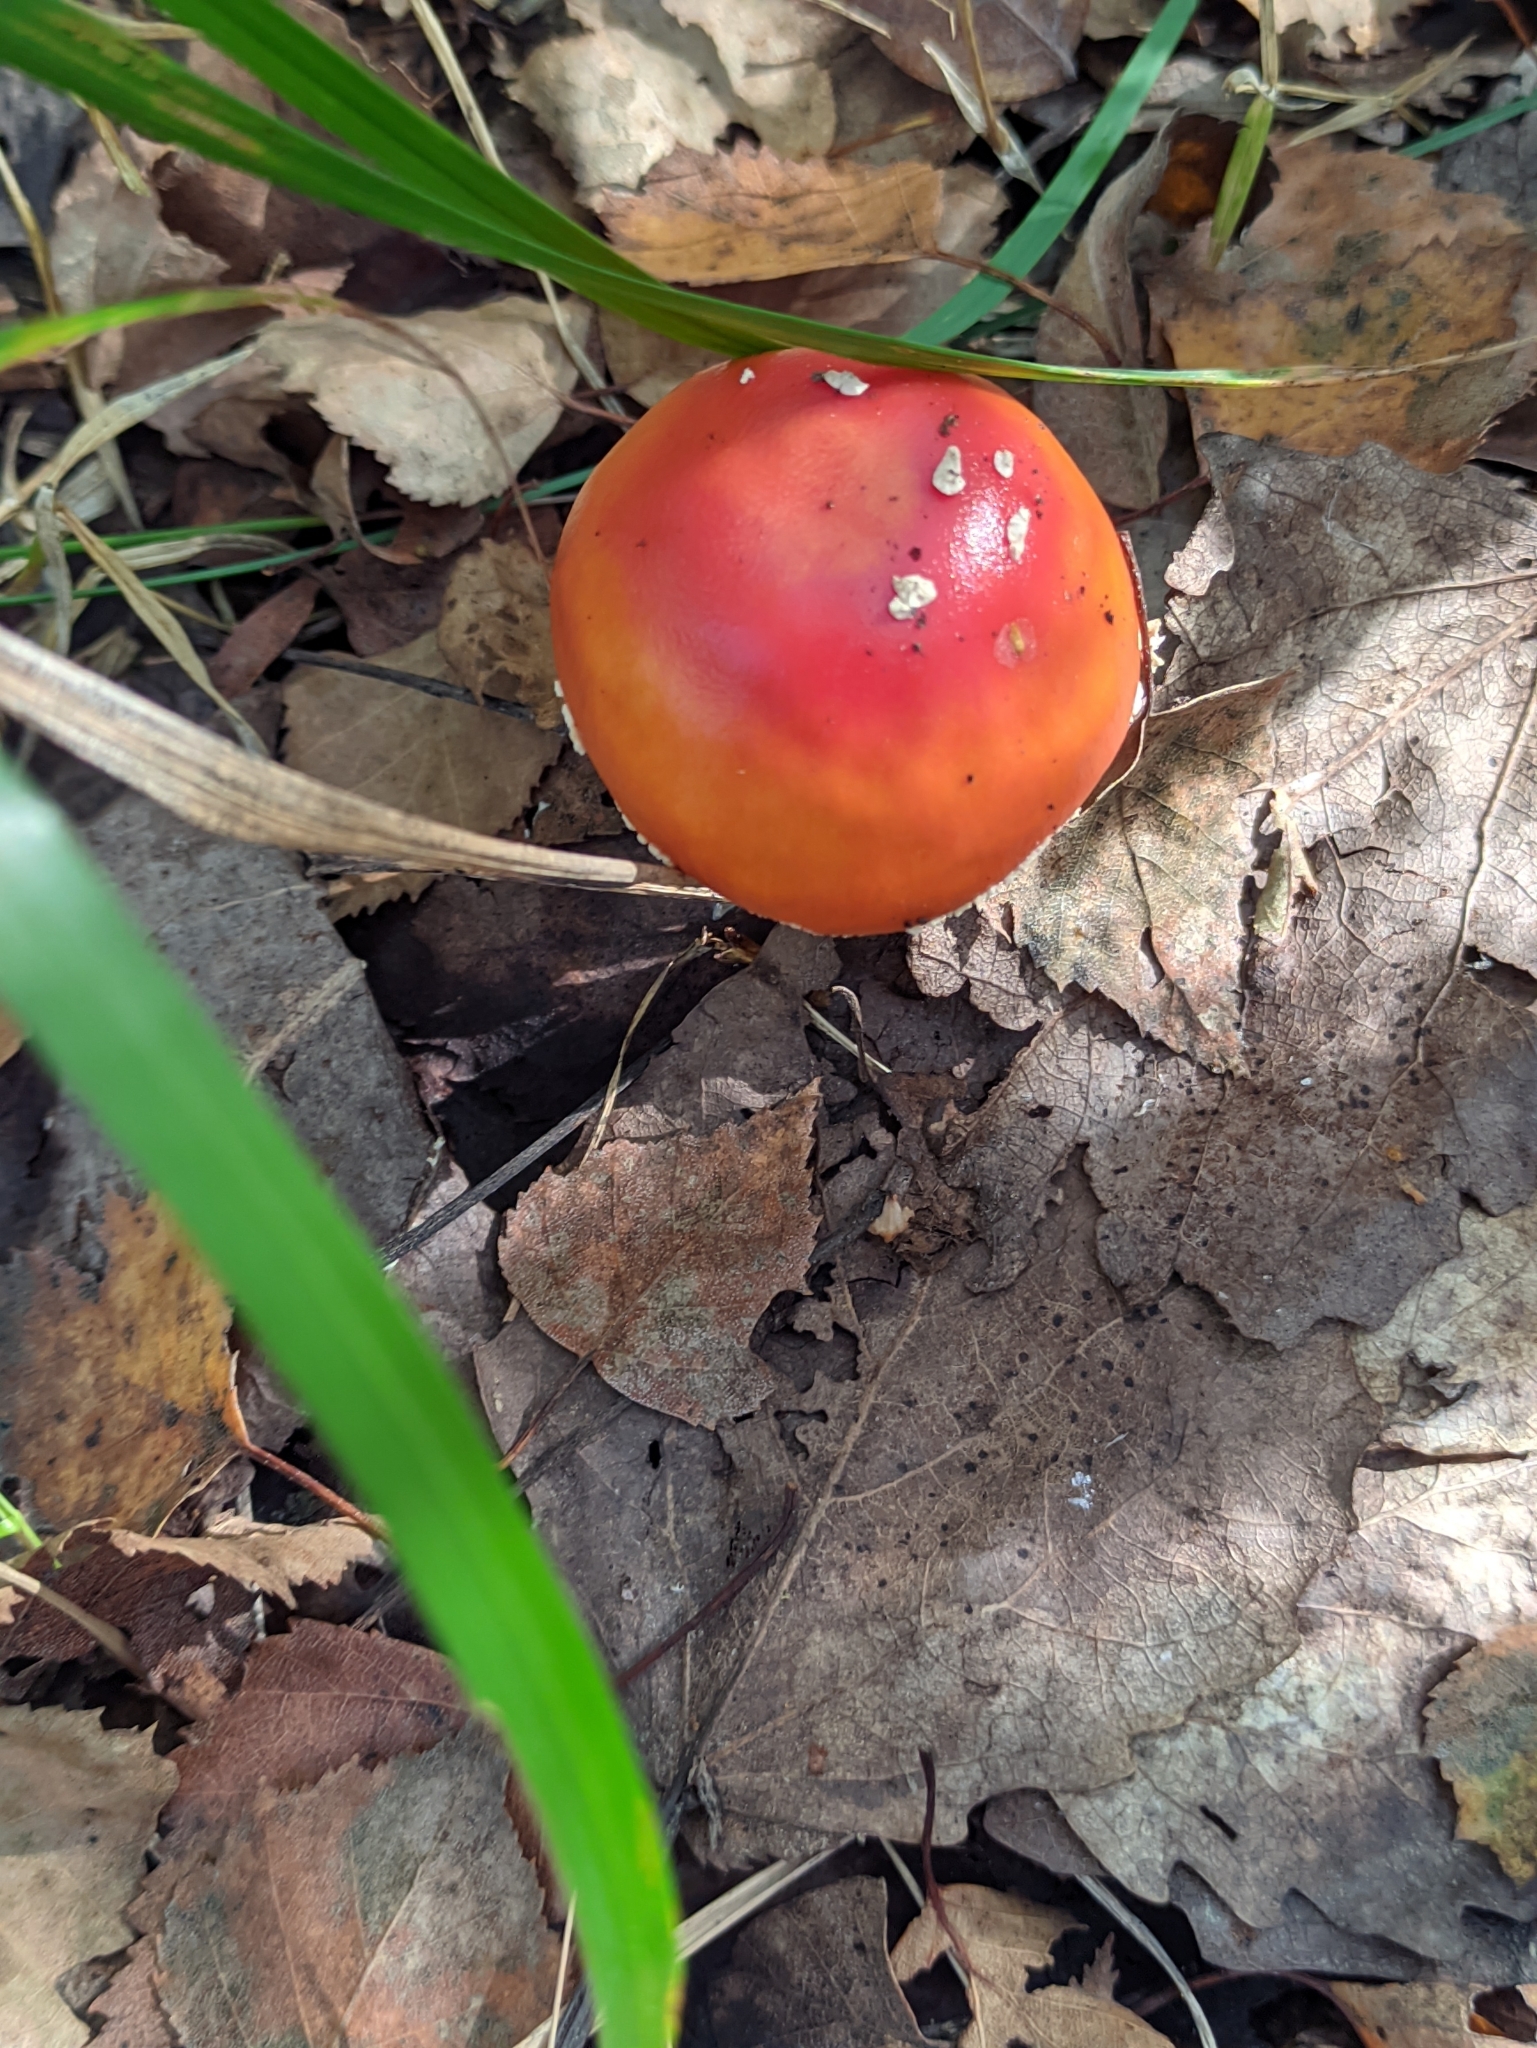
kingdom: Fungi
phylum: Basidiomycota
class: Agaricomycetes
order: Agaricales
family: Amanitaceae
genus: Amanita
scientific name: Amanita muscaria
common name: Fly agaric
